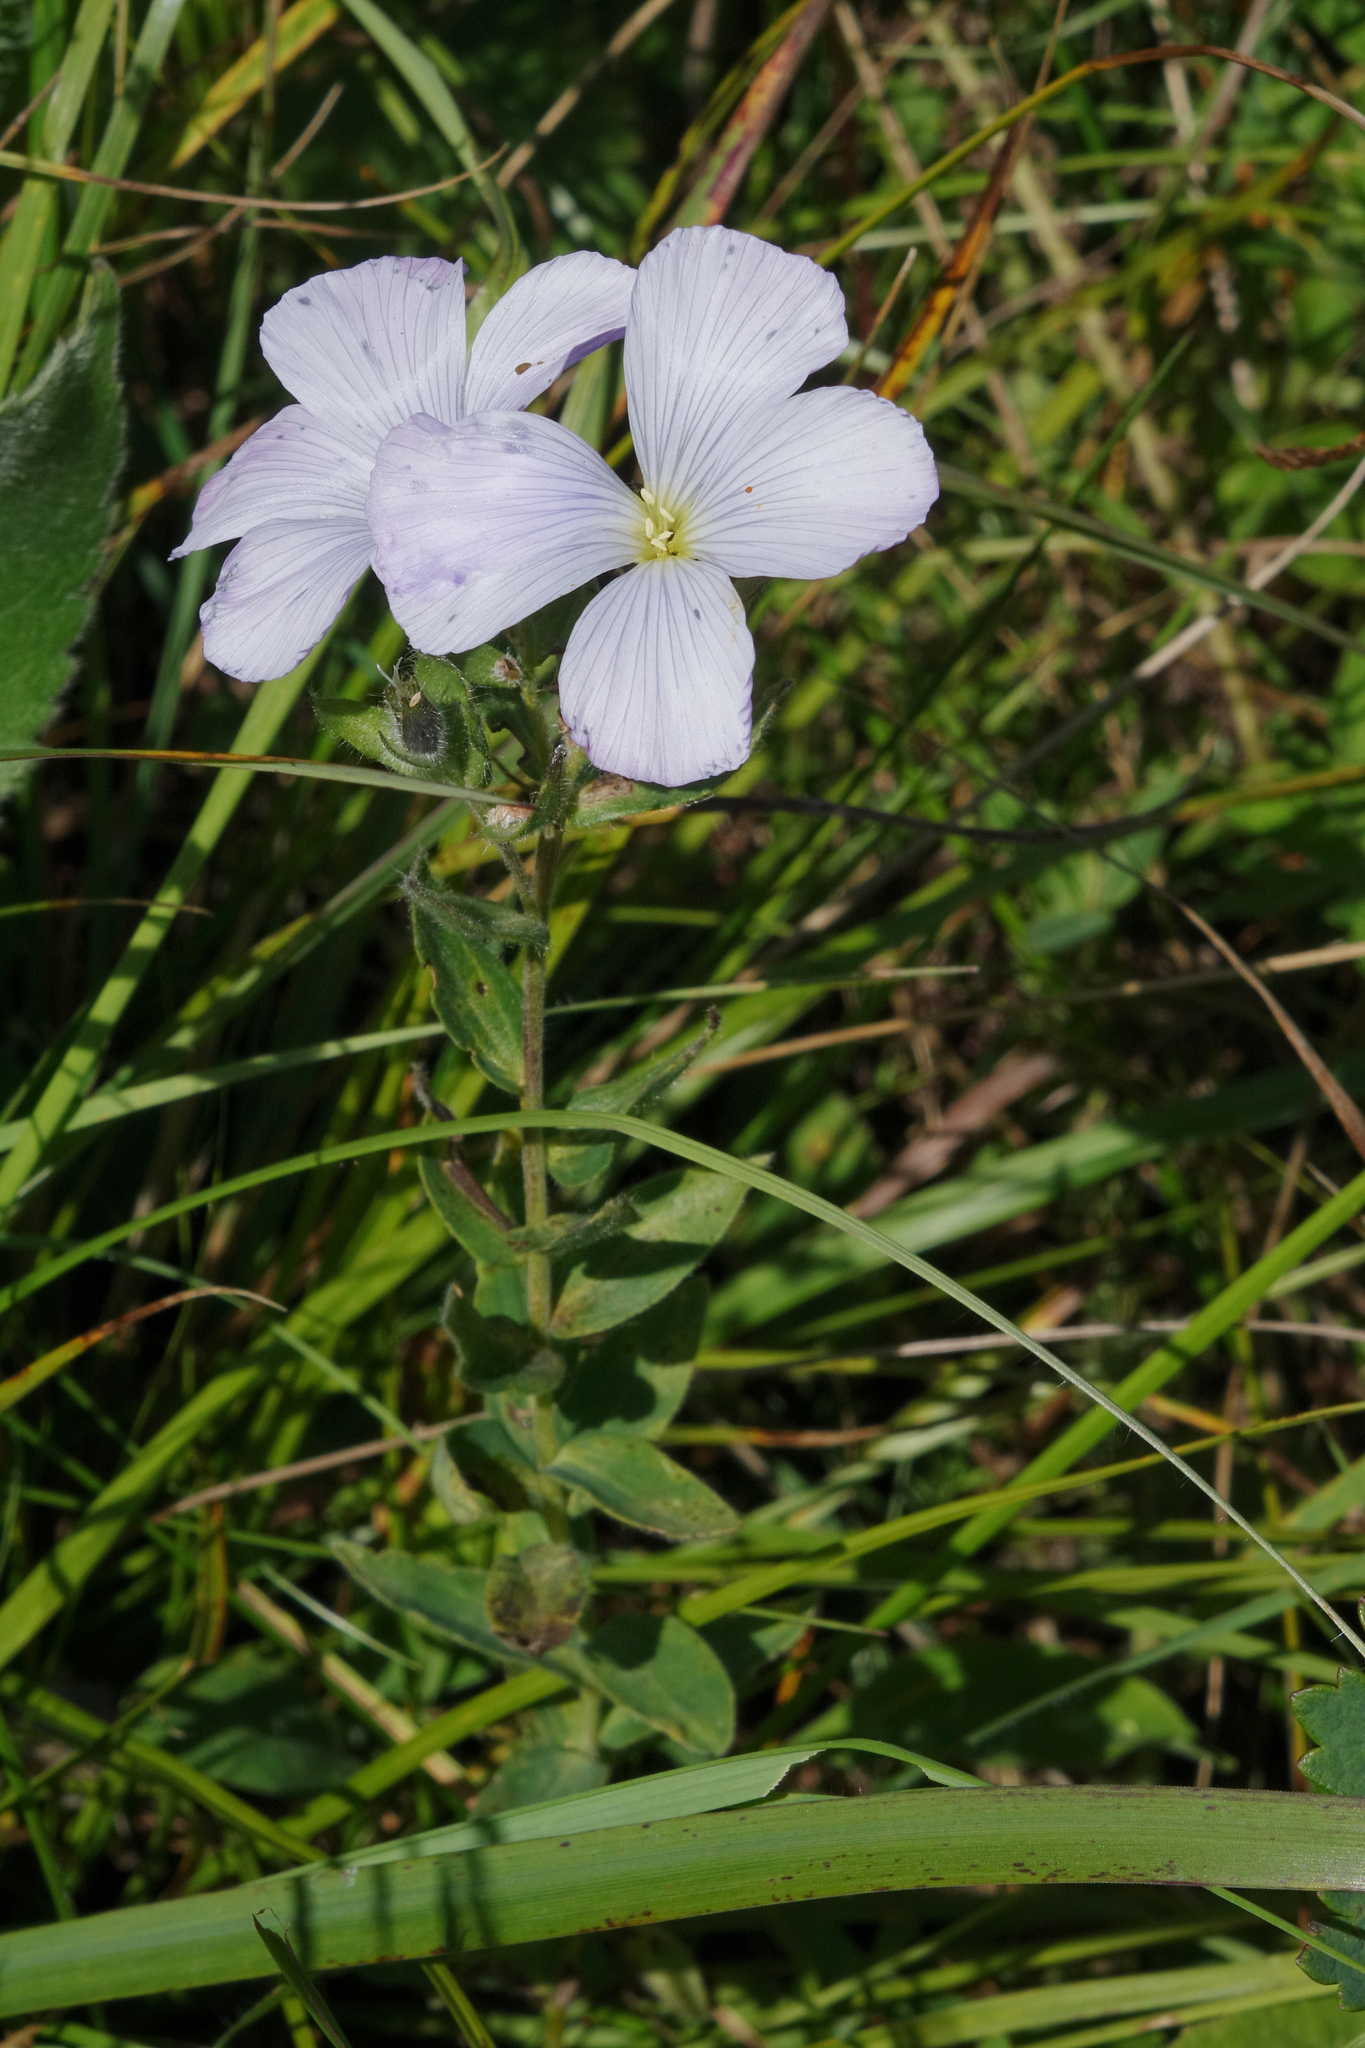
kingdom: Plantae
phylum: Tracheophyta
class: Magnoliopsida
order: Malpighiales
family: Linaceae
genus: Linum
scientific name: Linum hypericifolium
